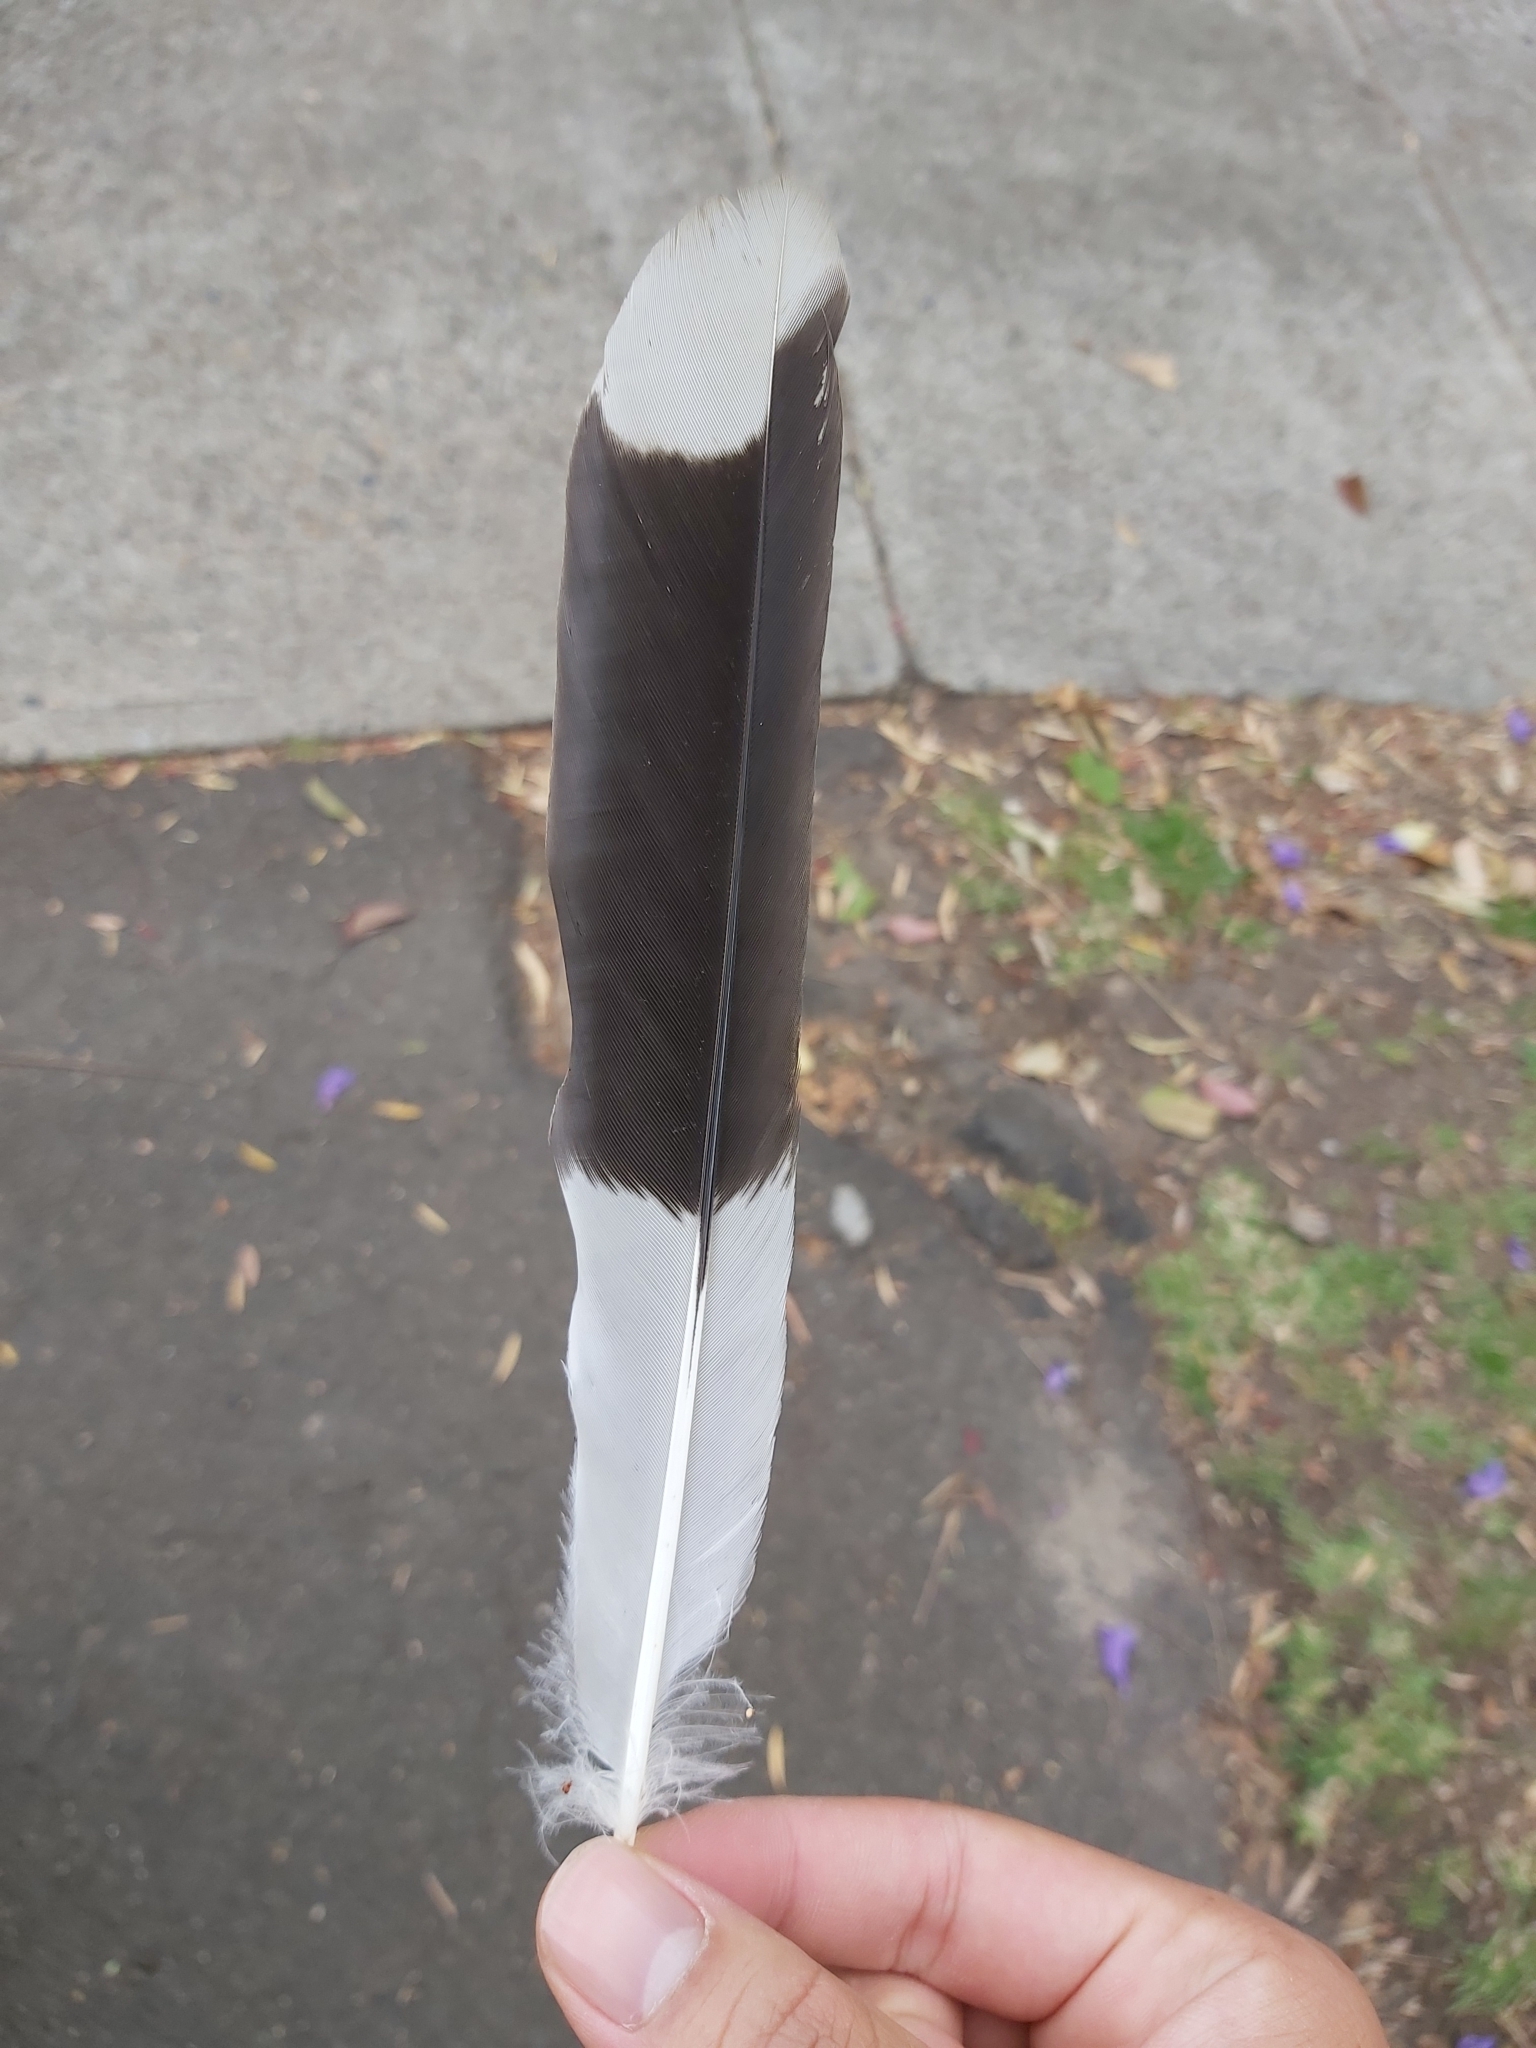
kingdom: Animalia
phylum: Chordata
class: Aves
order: Passeriformes
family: Cracticidae
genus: Strepera
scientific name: Strepera graculina
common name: Pied currawong
